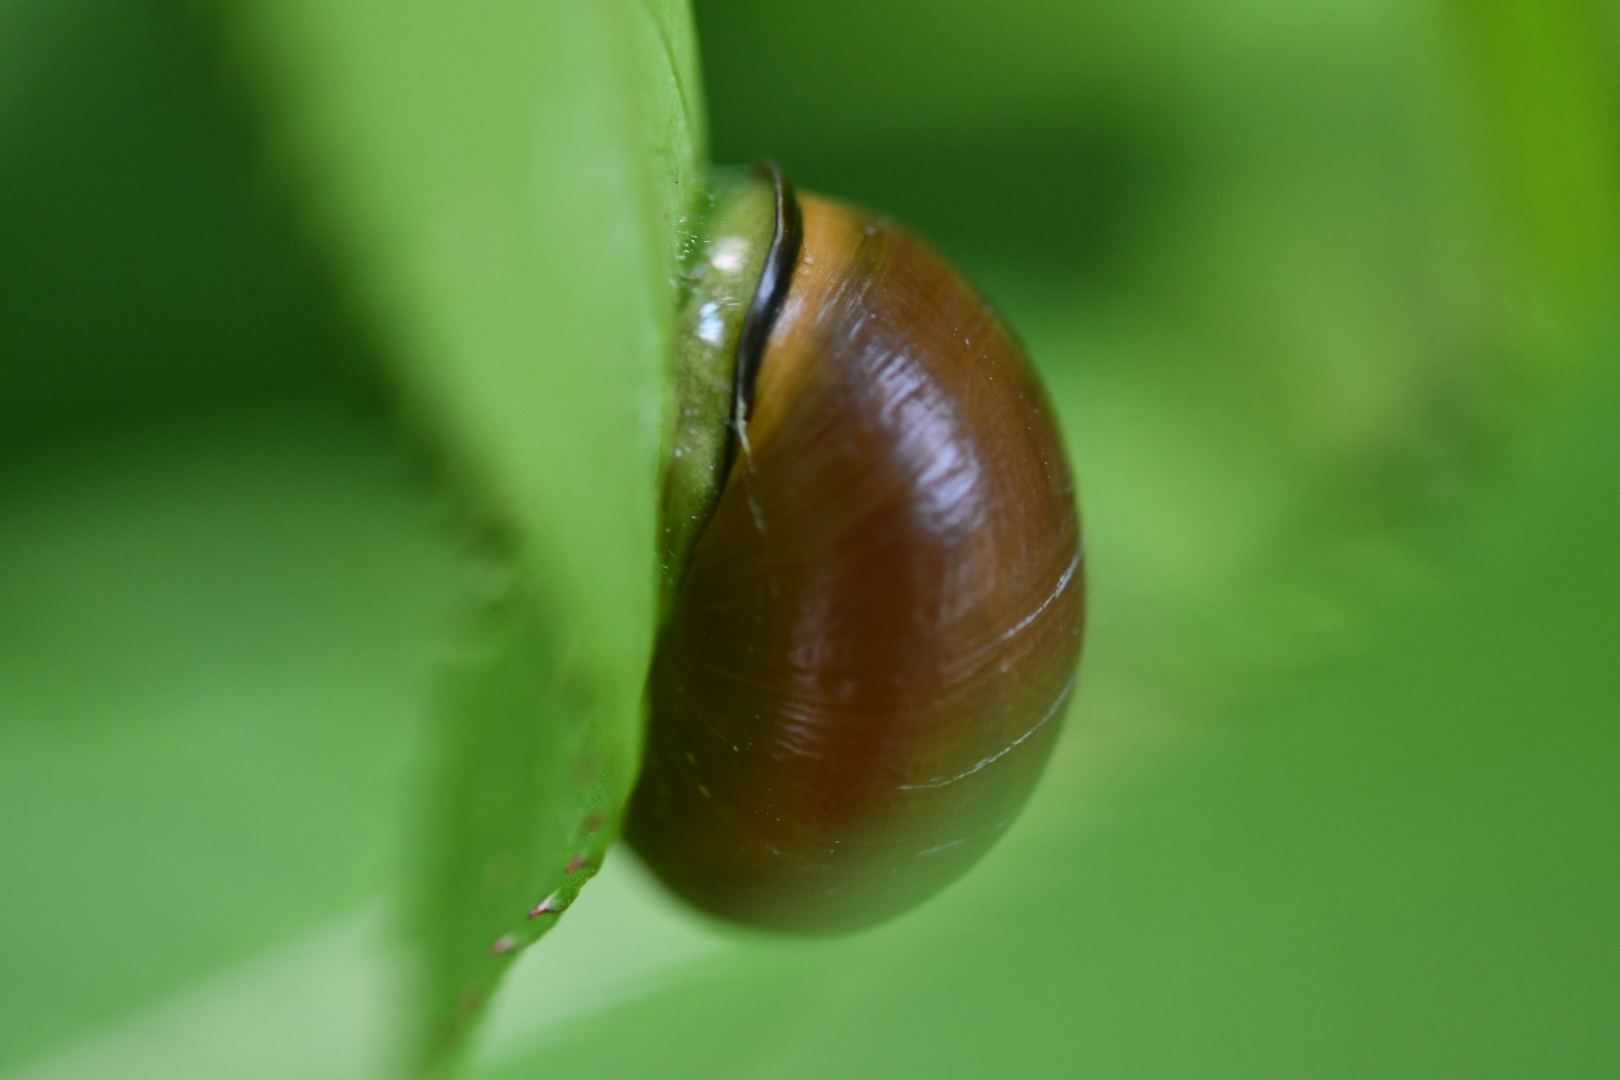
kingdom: Animalia
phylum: Mollusca
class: Gastropoda
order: Stylommatophora
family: Helicidae
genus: Cepaea
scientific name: Cepaea nemoralis
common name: Grovesnail
